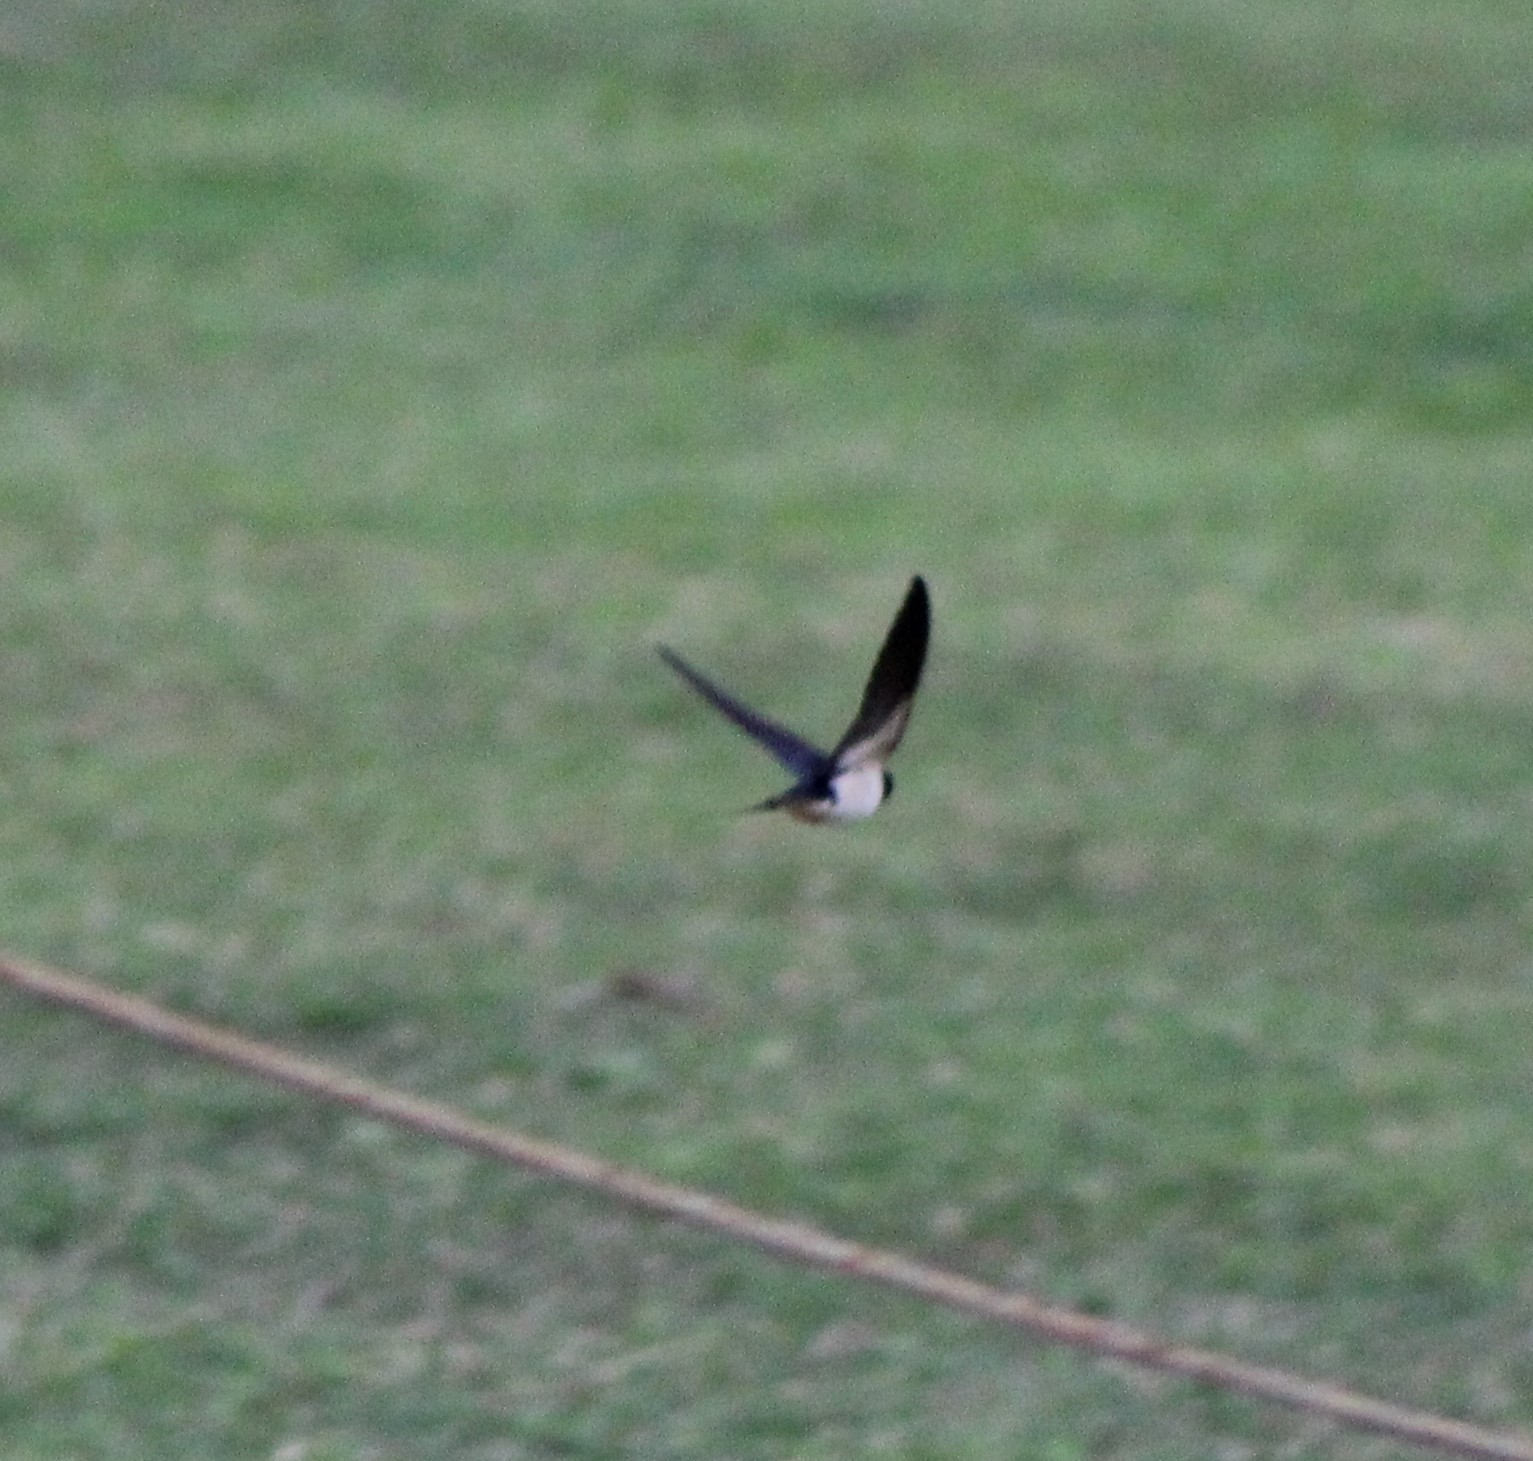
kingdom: Animalia
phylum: Chordata
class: Aves
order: Passeriformes
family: Hirundinidae
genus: Hirundo
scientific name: Hirundo rustica
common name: Barn swallow
